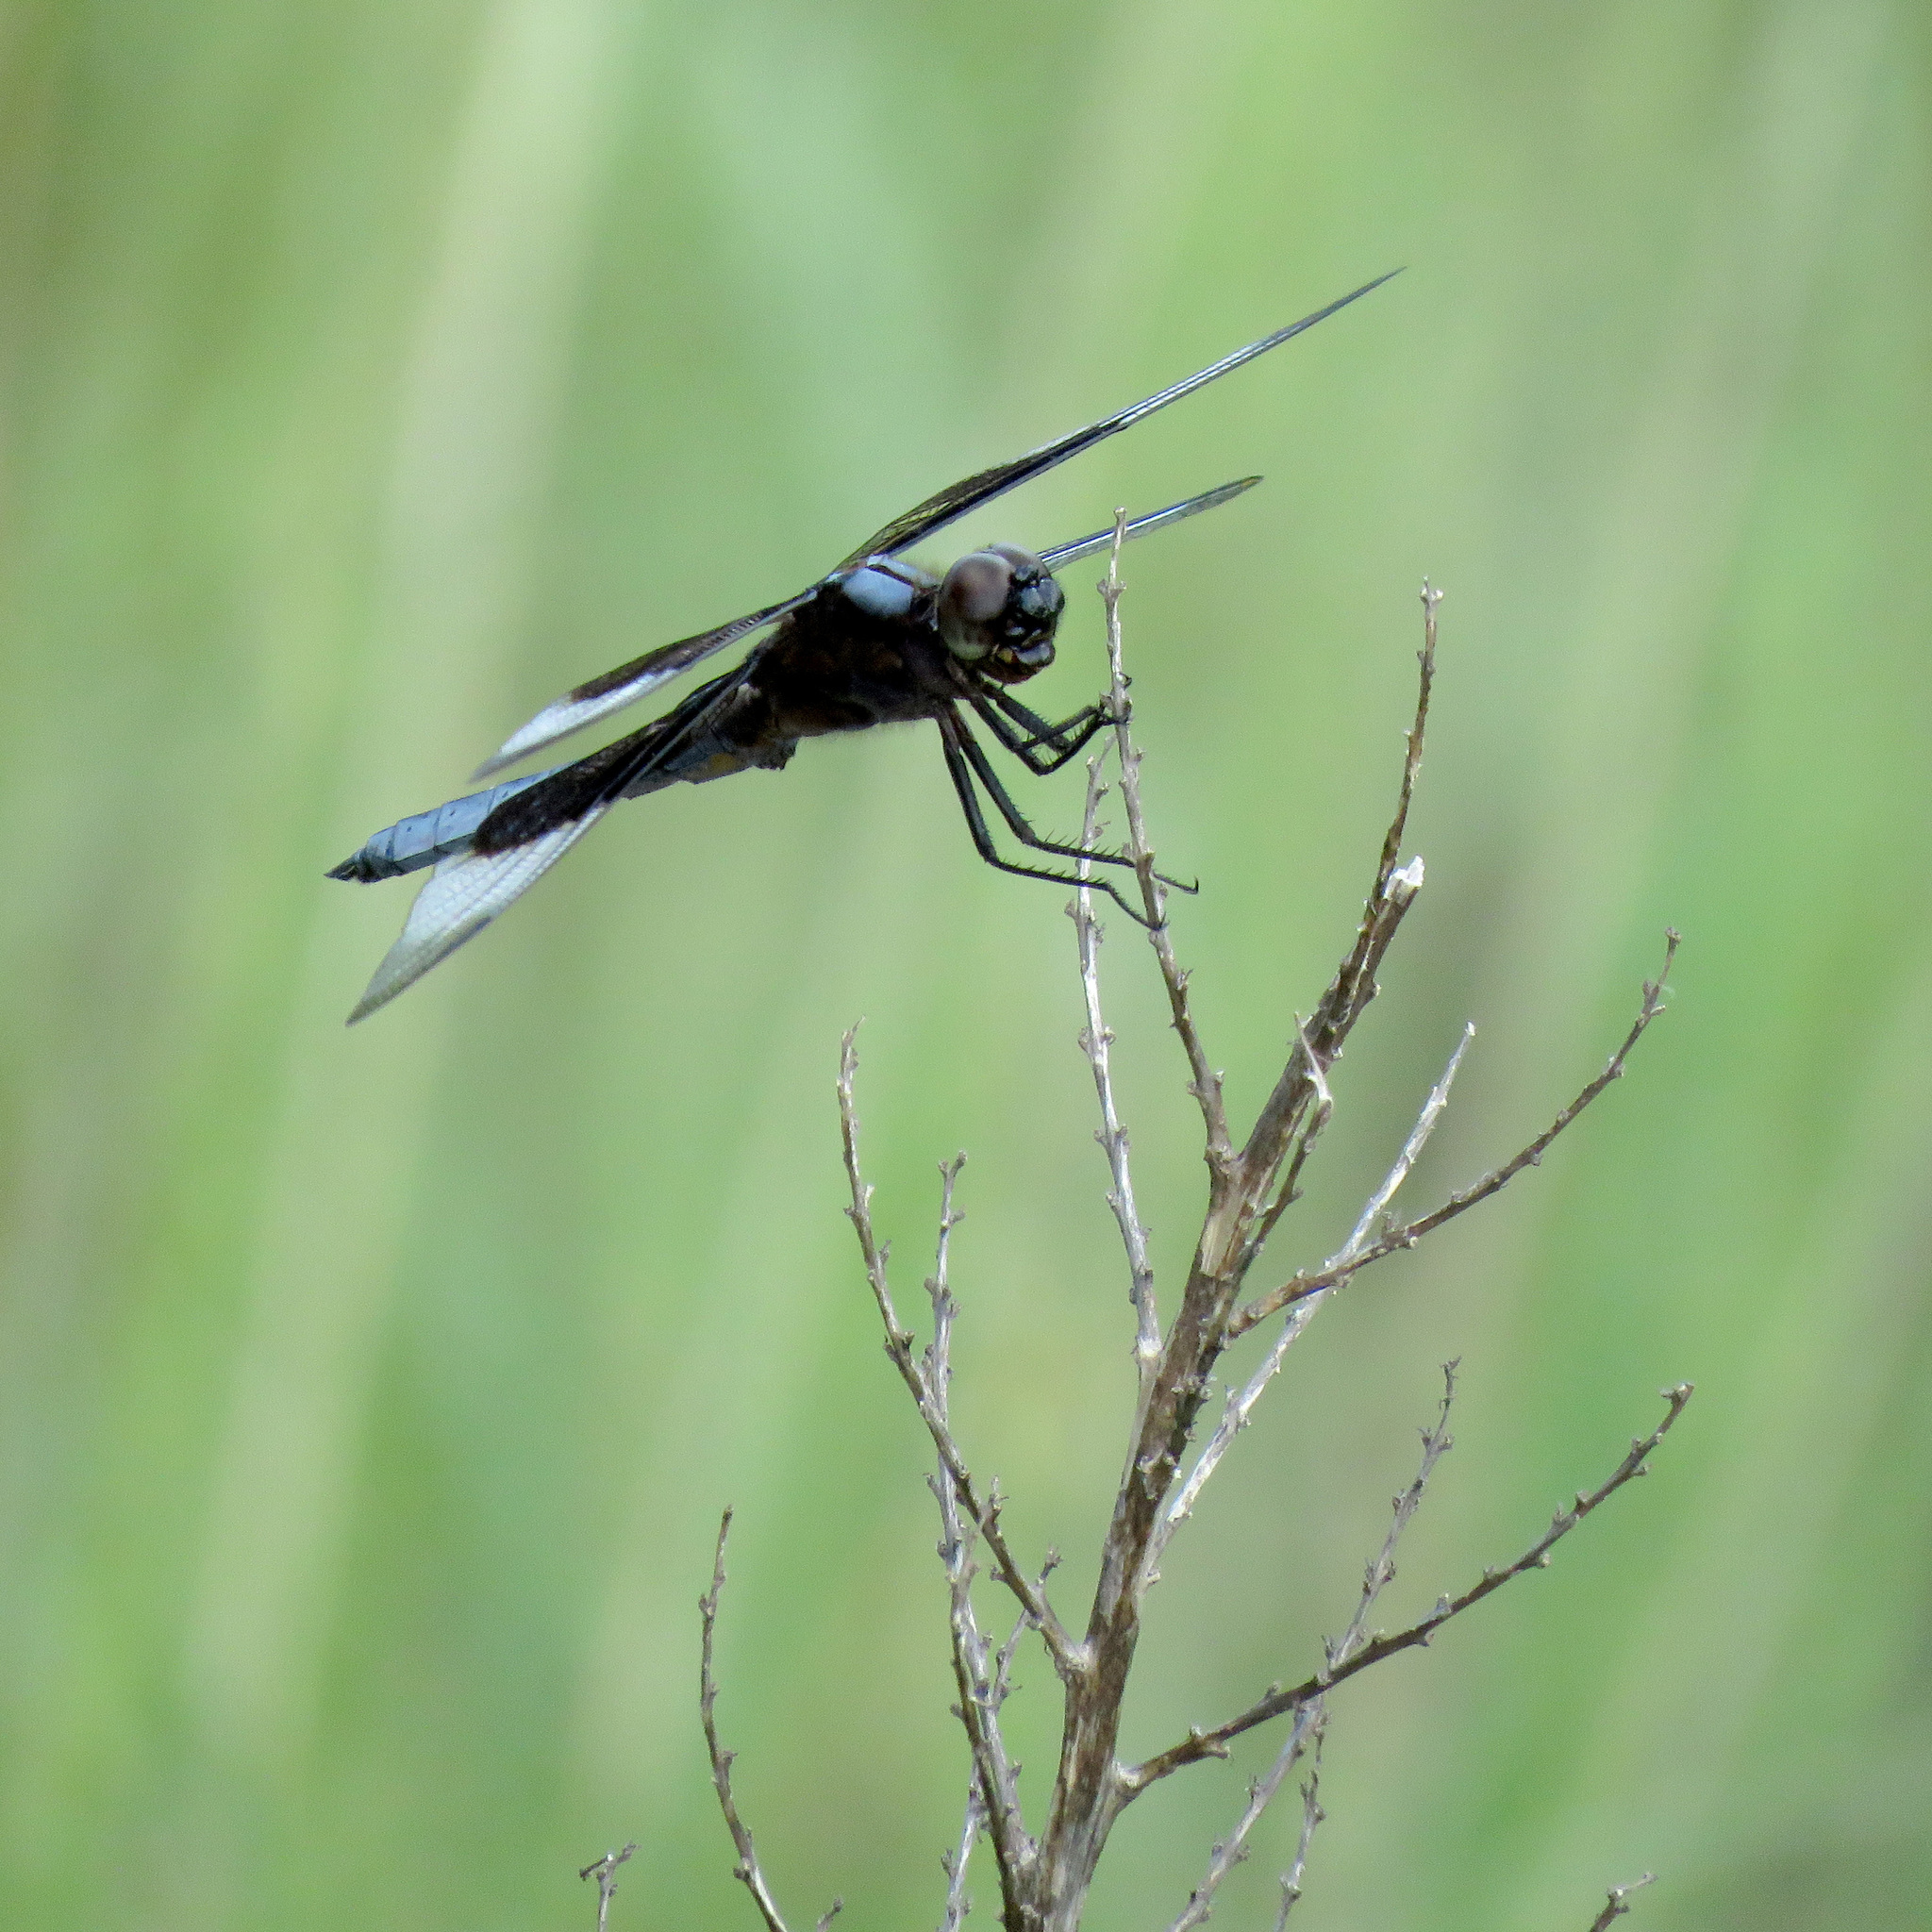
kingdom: Animalia
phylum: Arthropoda
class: Insecta
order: Odonata
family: Libellulidae
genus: Libellula
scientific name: Libellula luctuosa
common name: Widow skimmer
